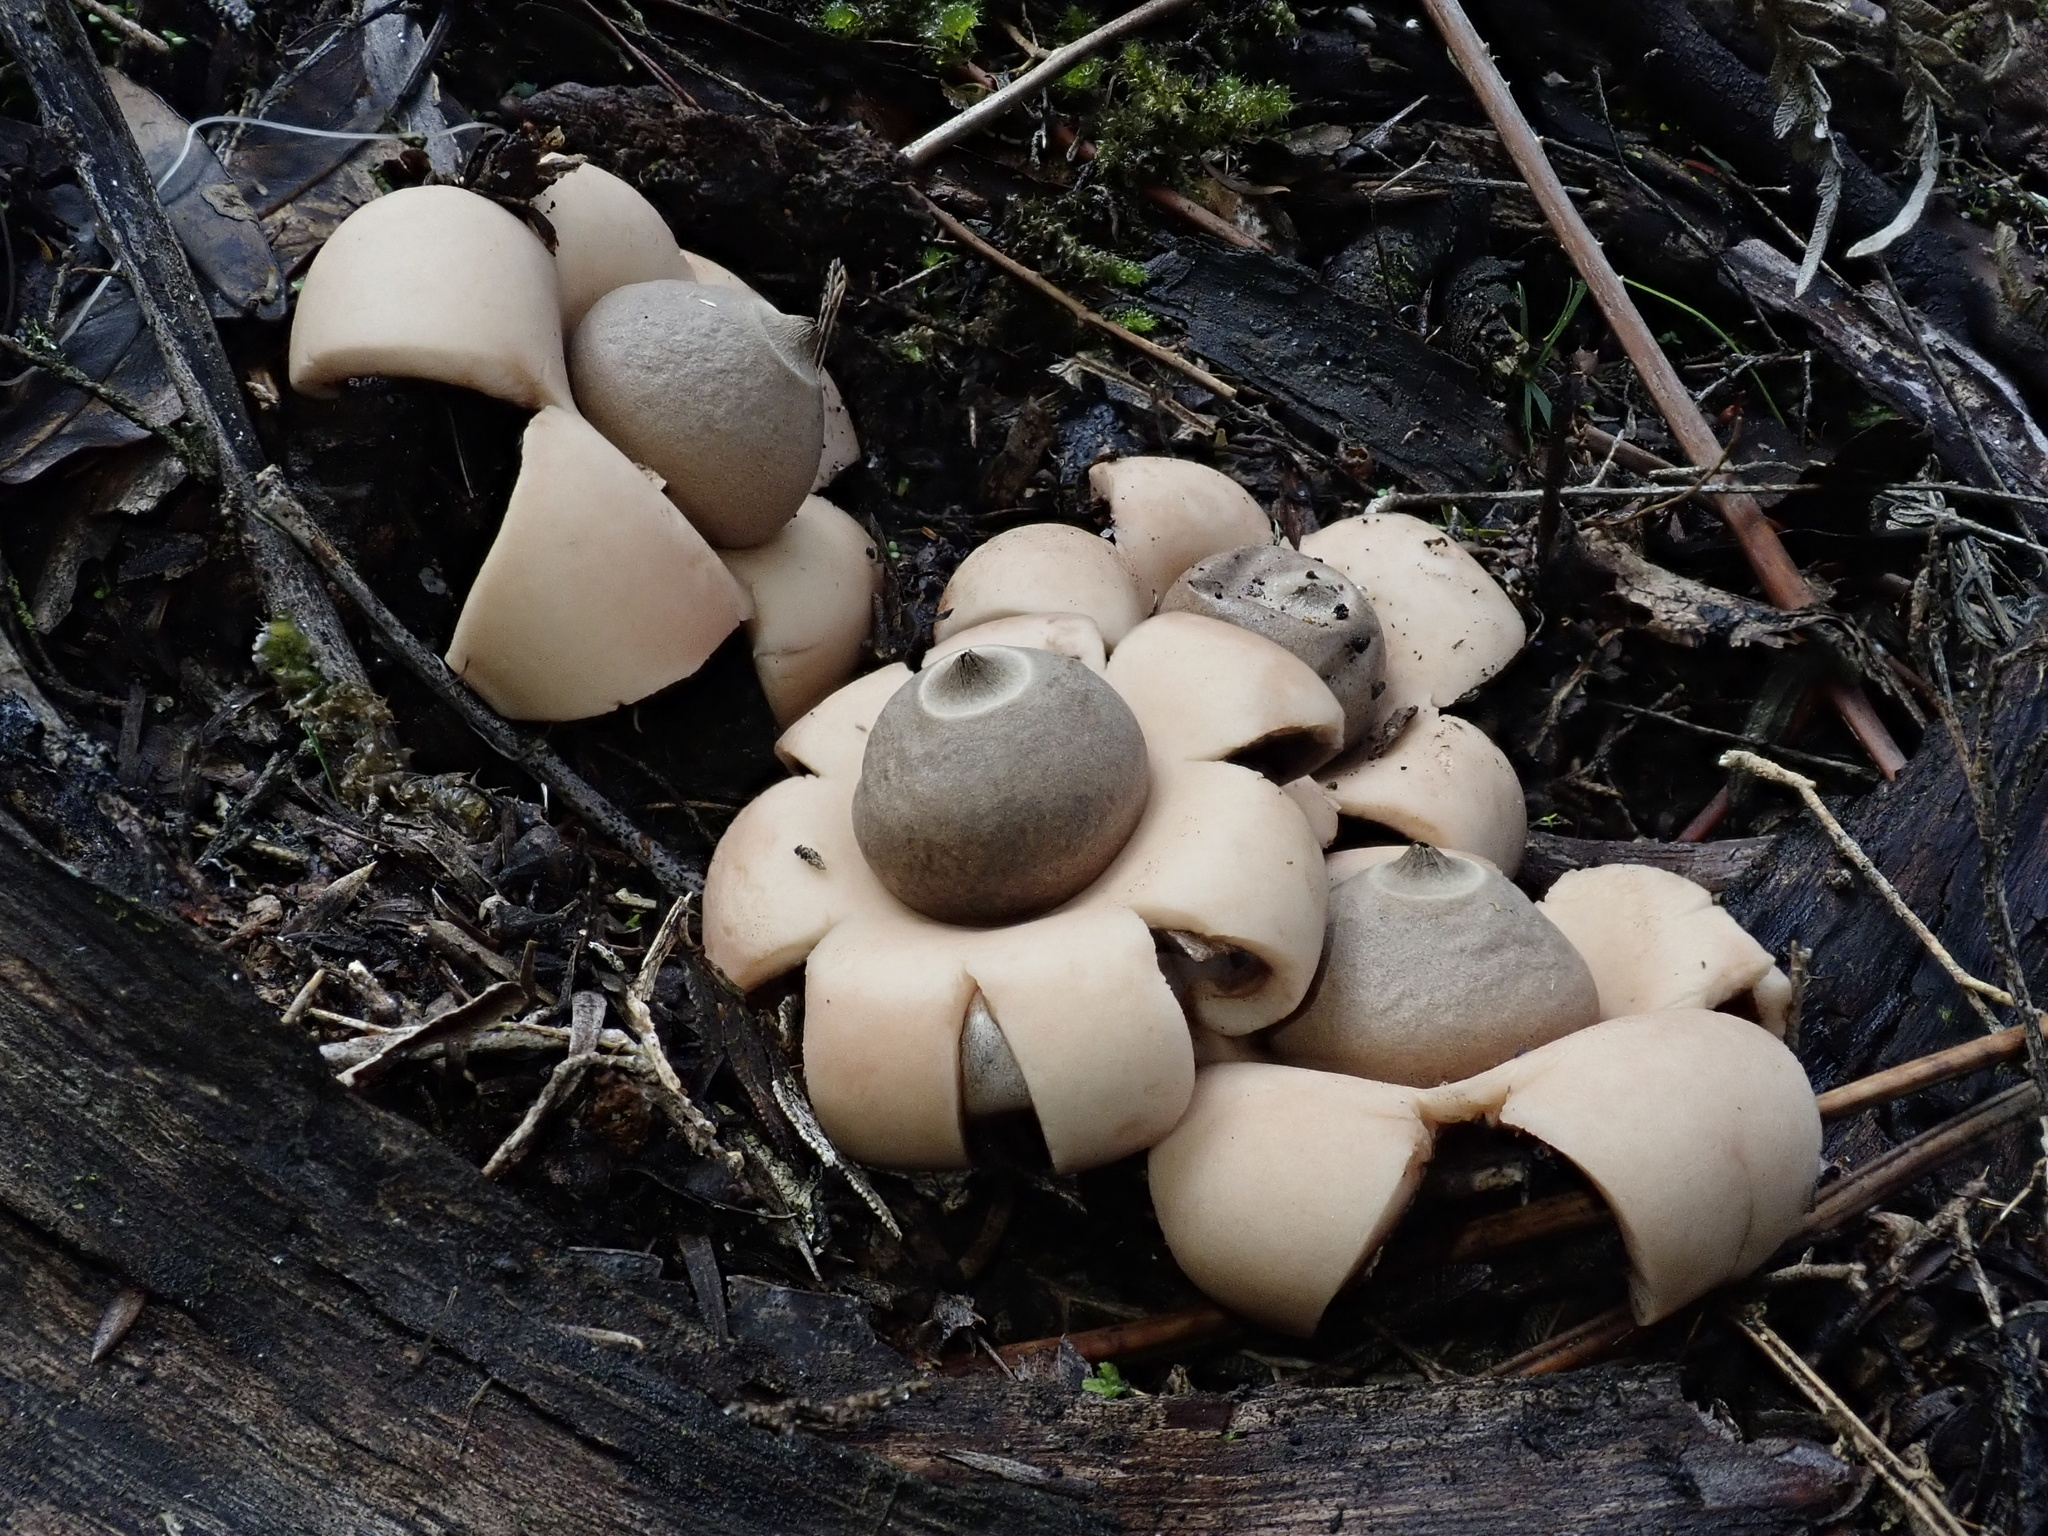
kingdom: Fungi
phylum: Basidiomycota
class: Agaricomycetes
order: Geastrales
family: Geastraceae
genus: Geastrum
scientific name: Geastrum triplex
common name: Collared earthstar
